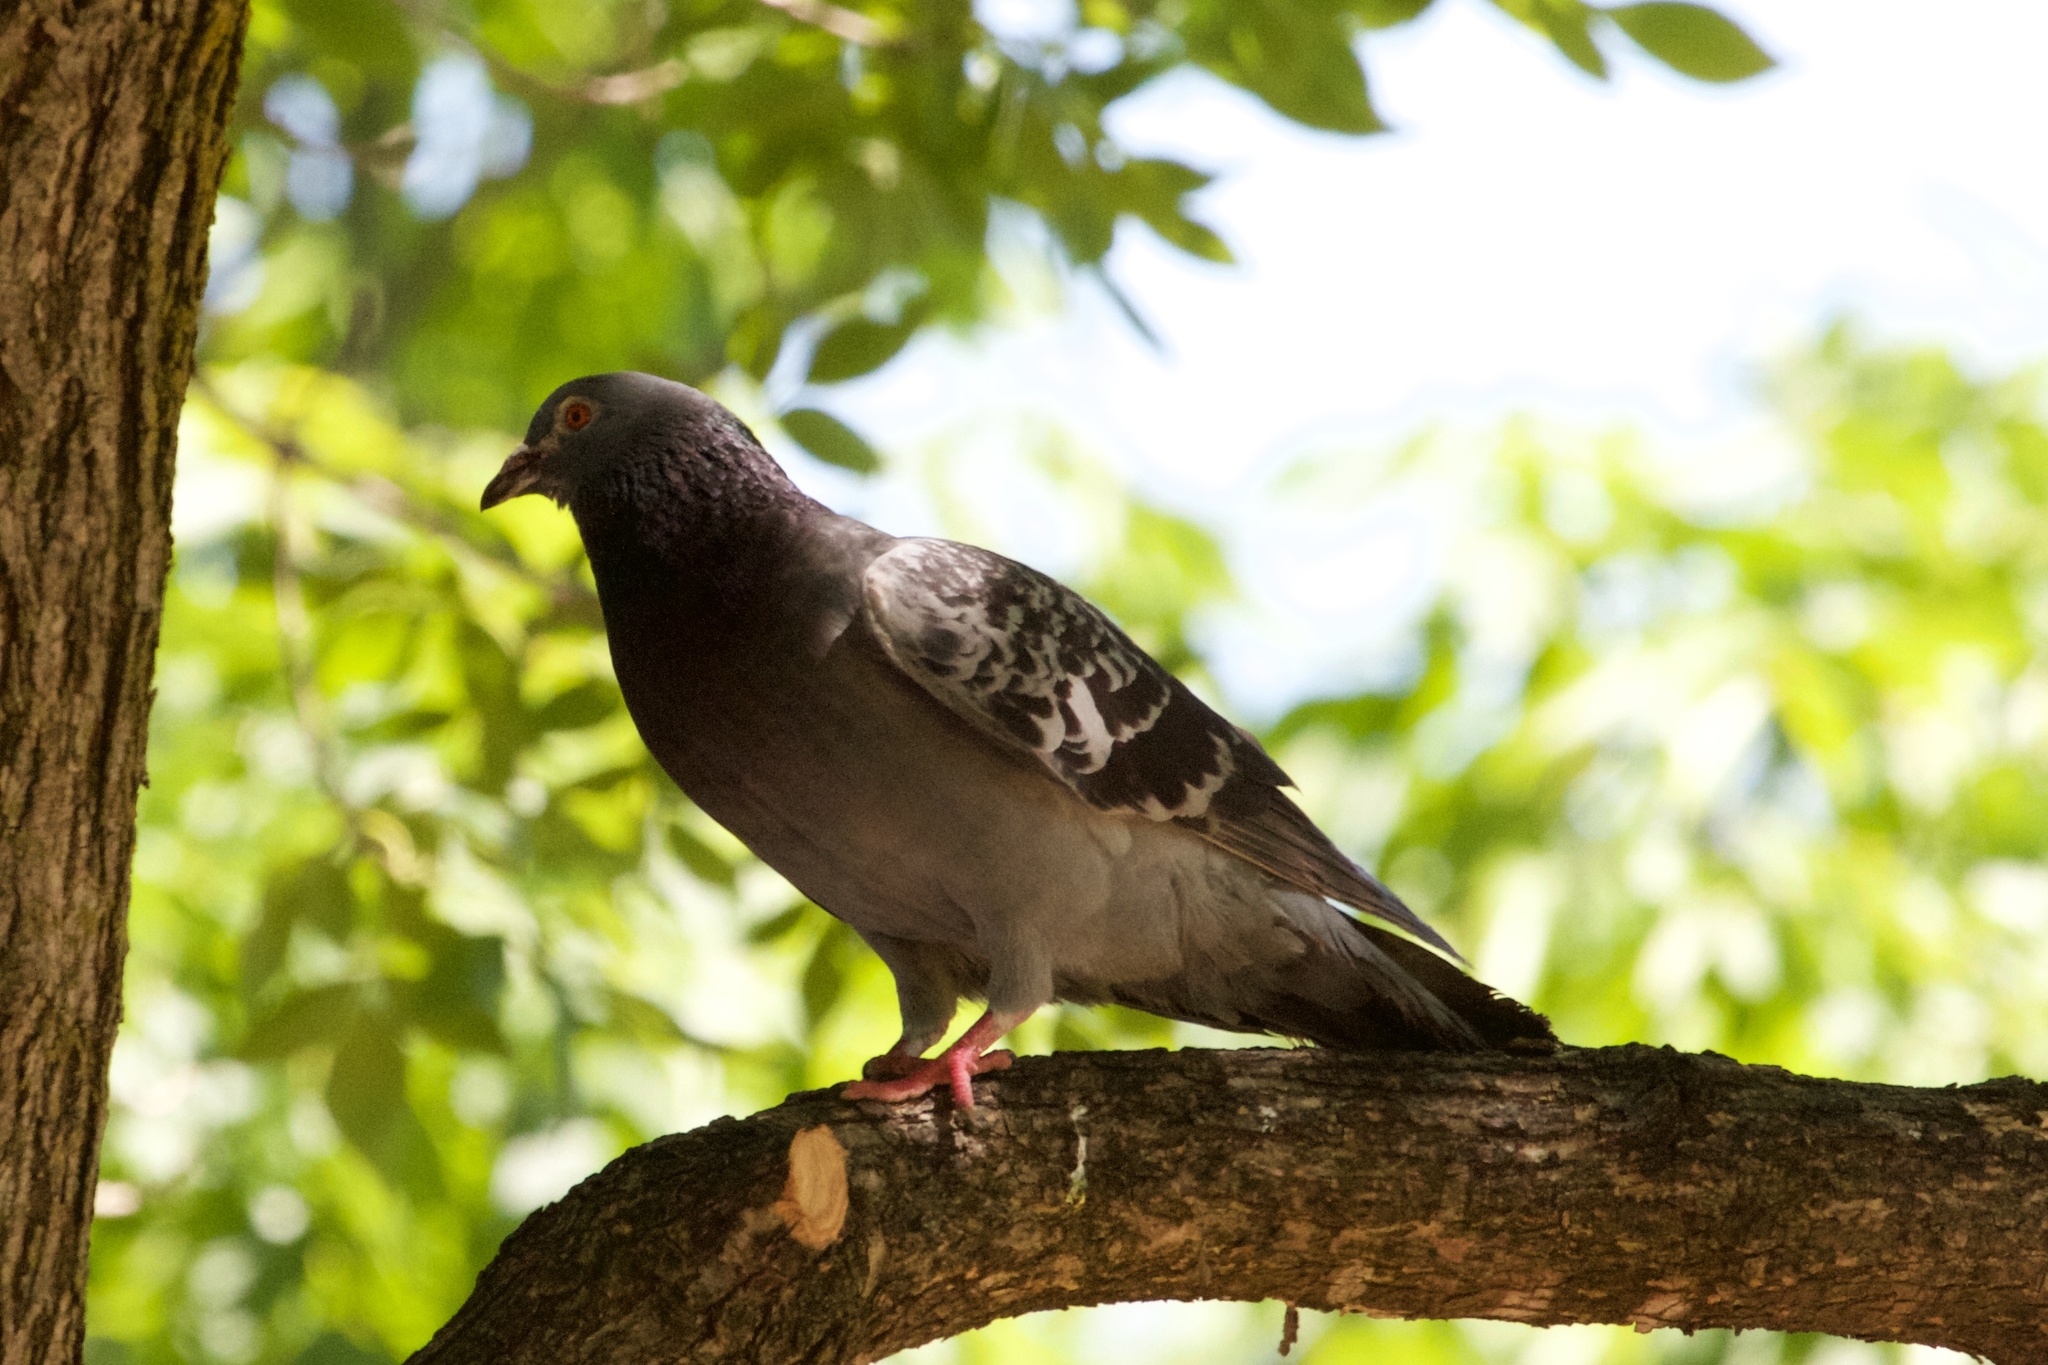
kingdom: Animalia
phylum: Chordata
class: Aves
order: Columbiformes
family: Columbidae
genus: Columba
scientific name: Columba livia
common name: Rock pigeon
